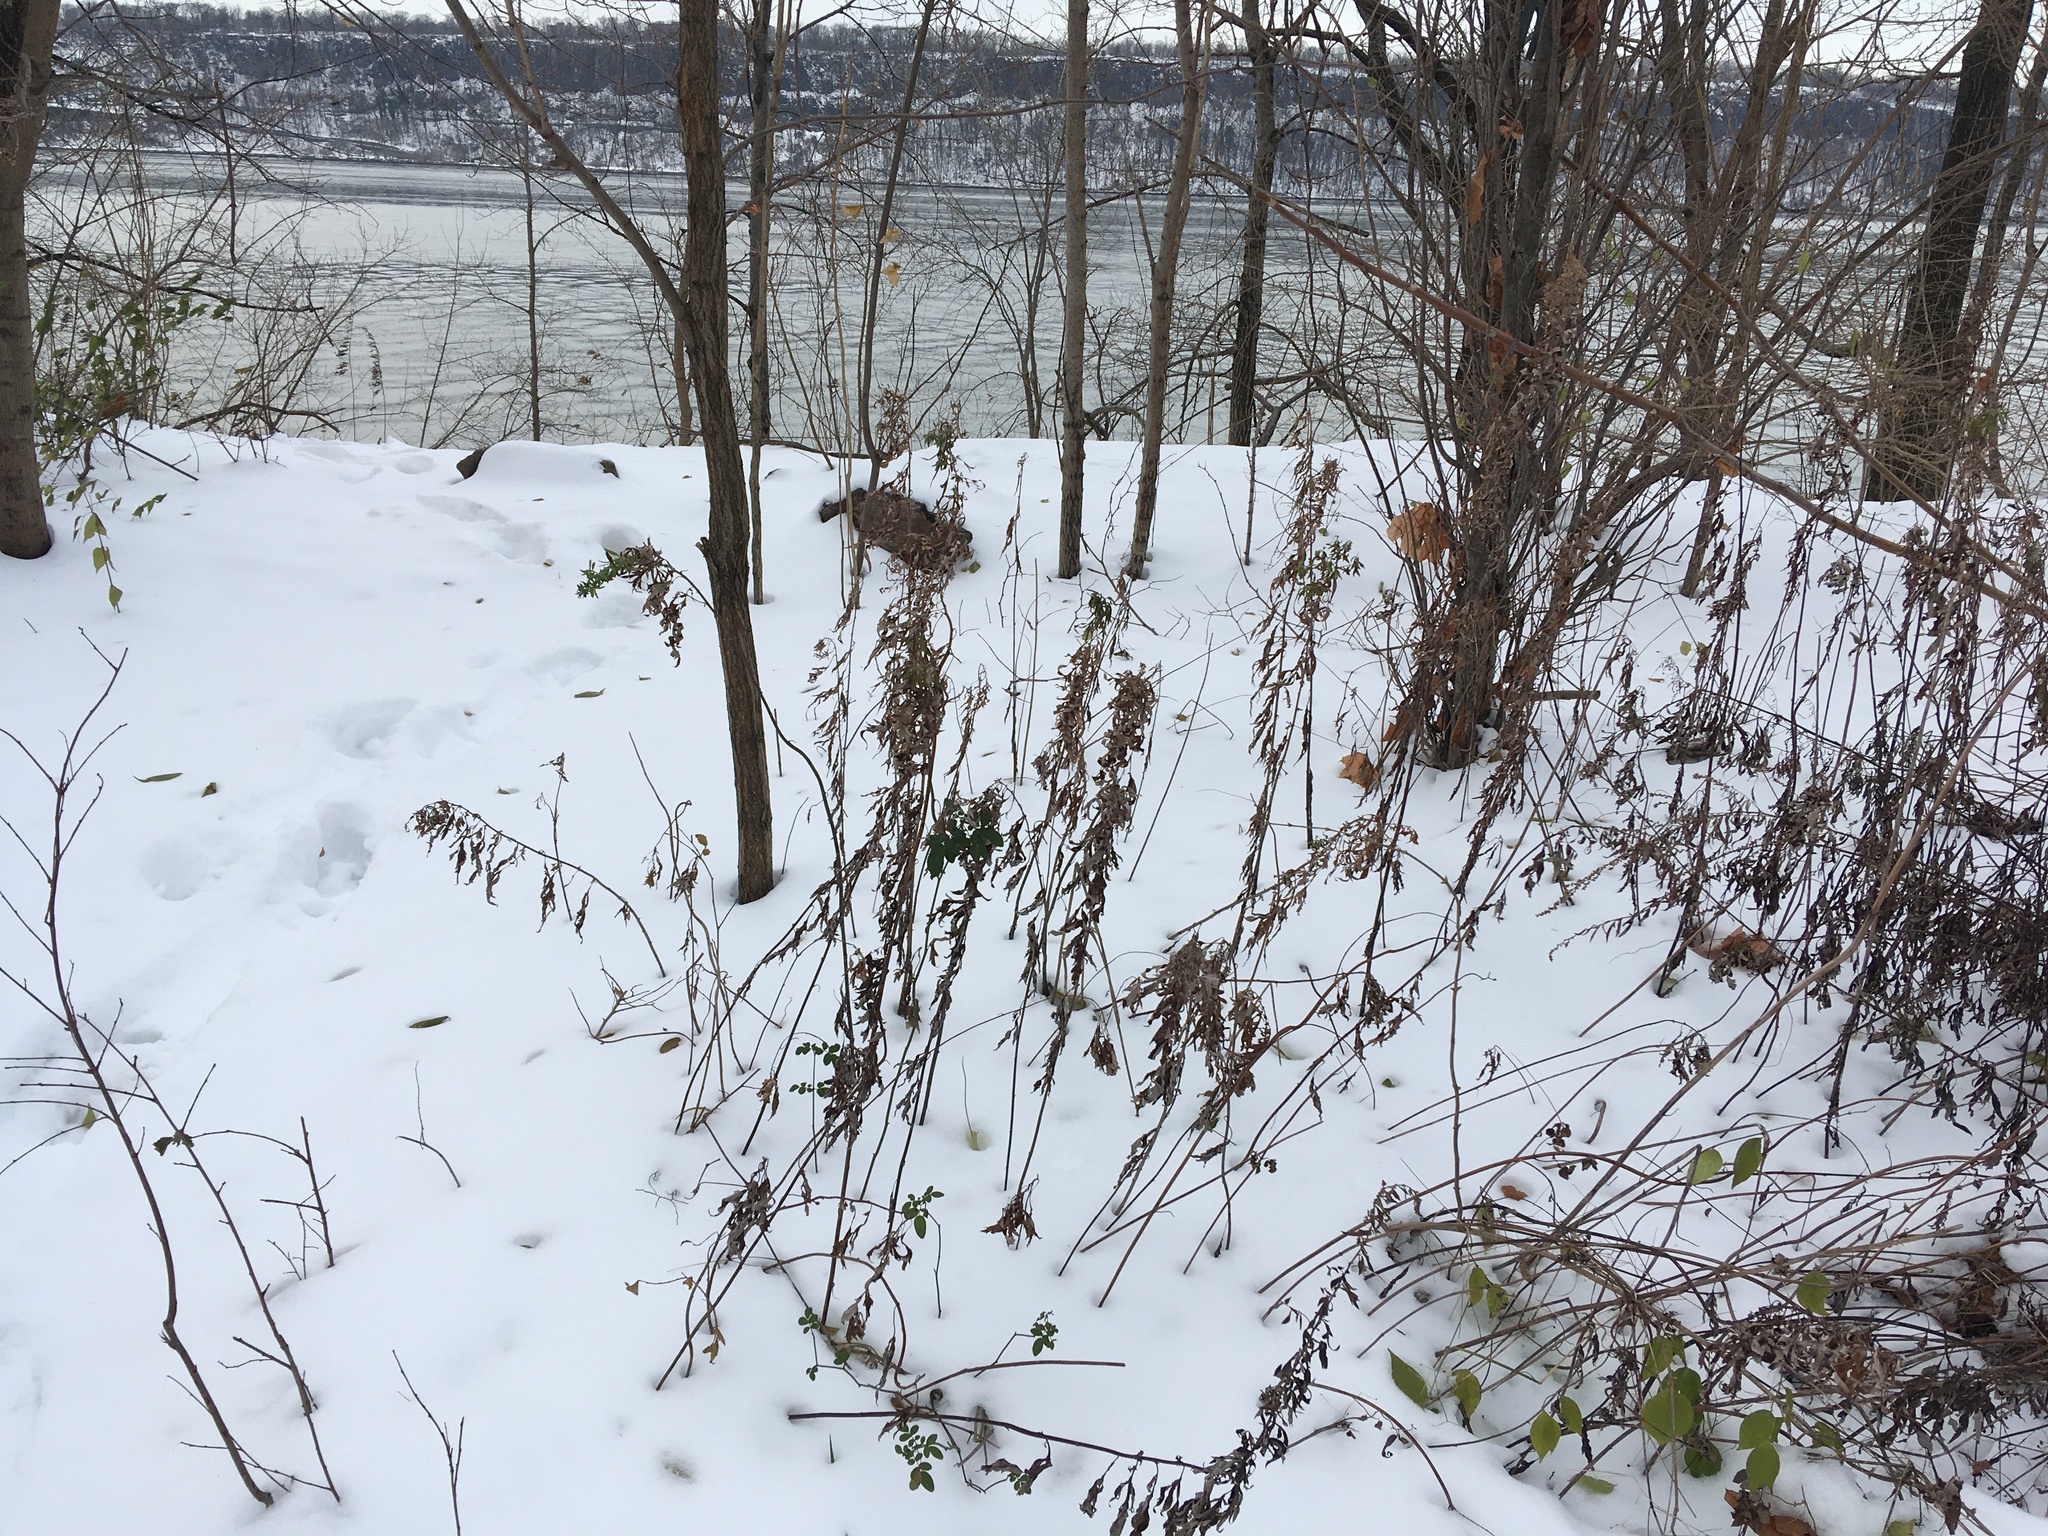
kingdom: Plantae
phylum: Tracheophyta
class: Magnoliopsida
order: Asterales
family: Asteraceae
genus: Artemisia
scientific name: Artemisia vulgaris
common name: Mugwort
